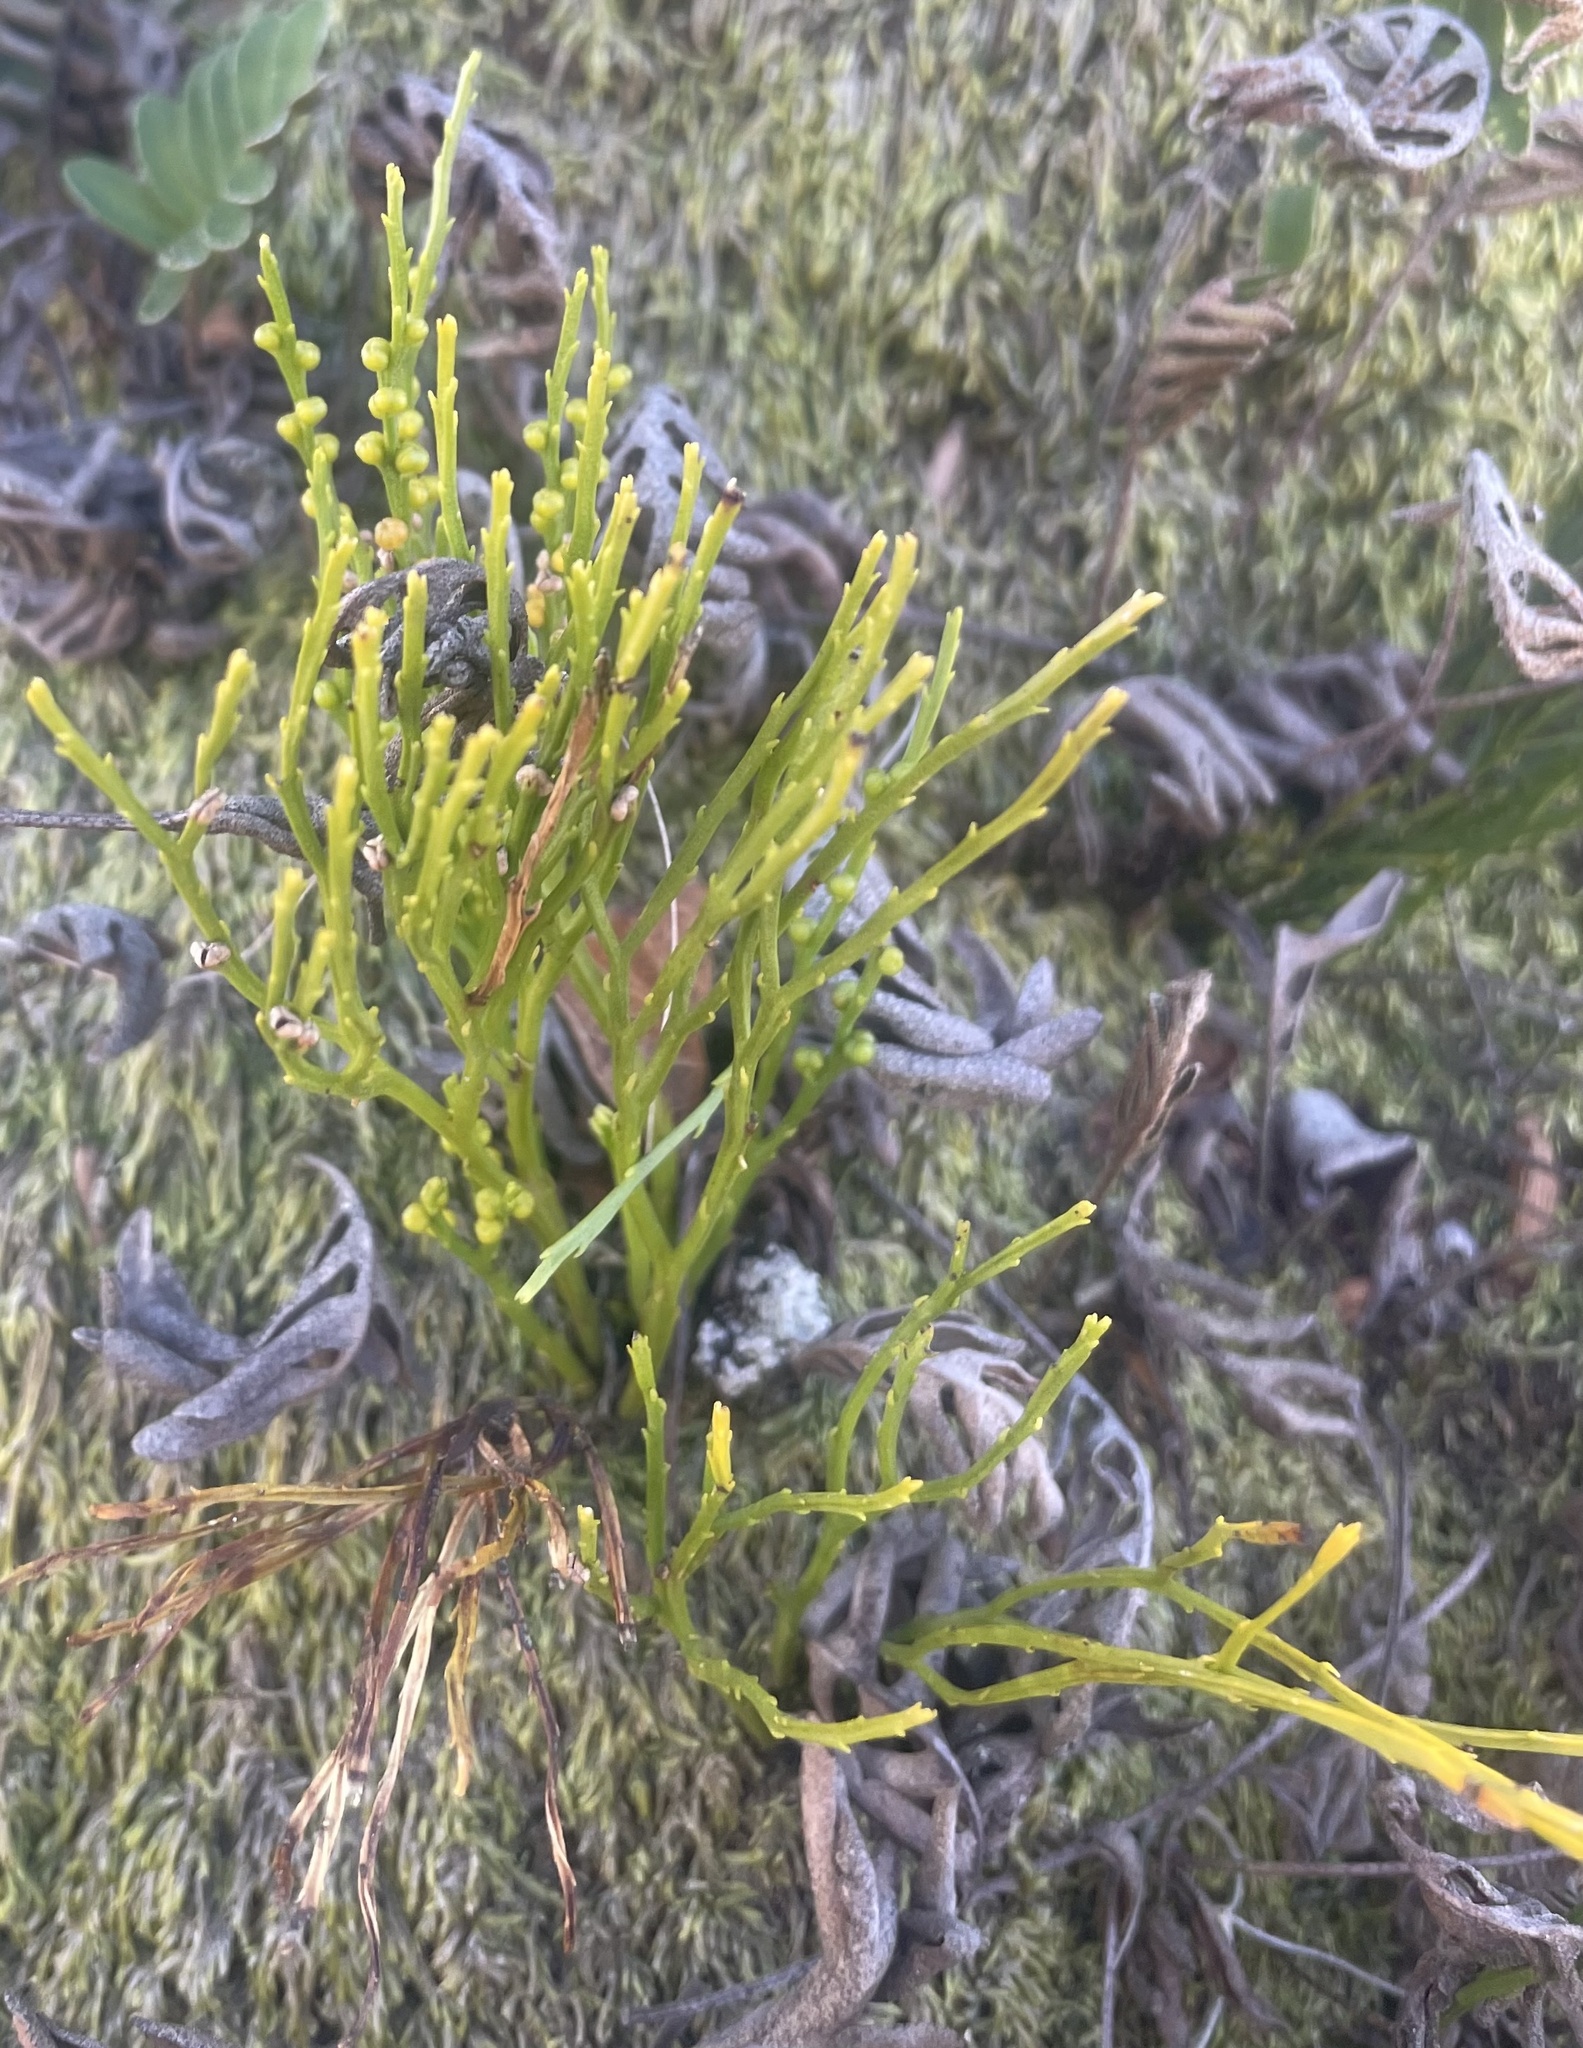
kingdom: Plantae
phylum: Tracheophyta
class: Polypodiopsida
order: Psilotales
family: Psilotaceae
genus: Psilotum
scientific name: Psilotum nudum
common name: Skeleton fork fern
